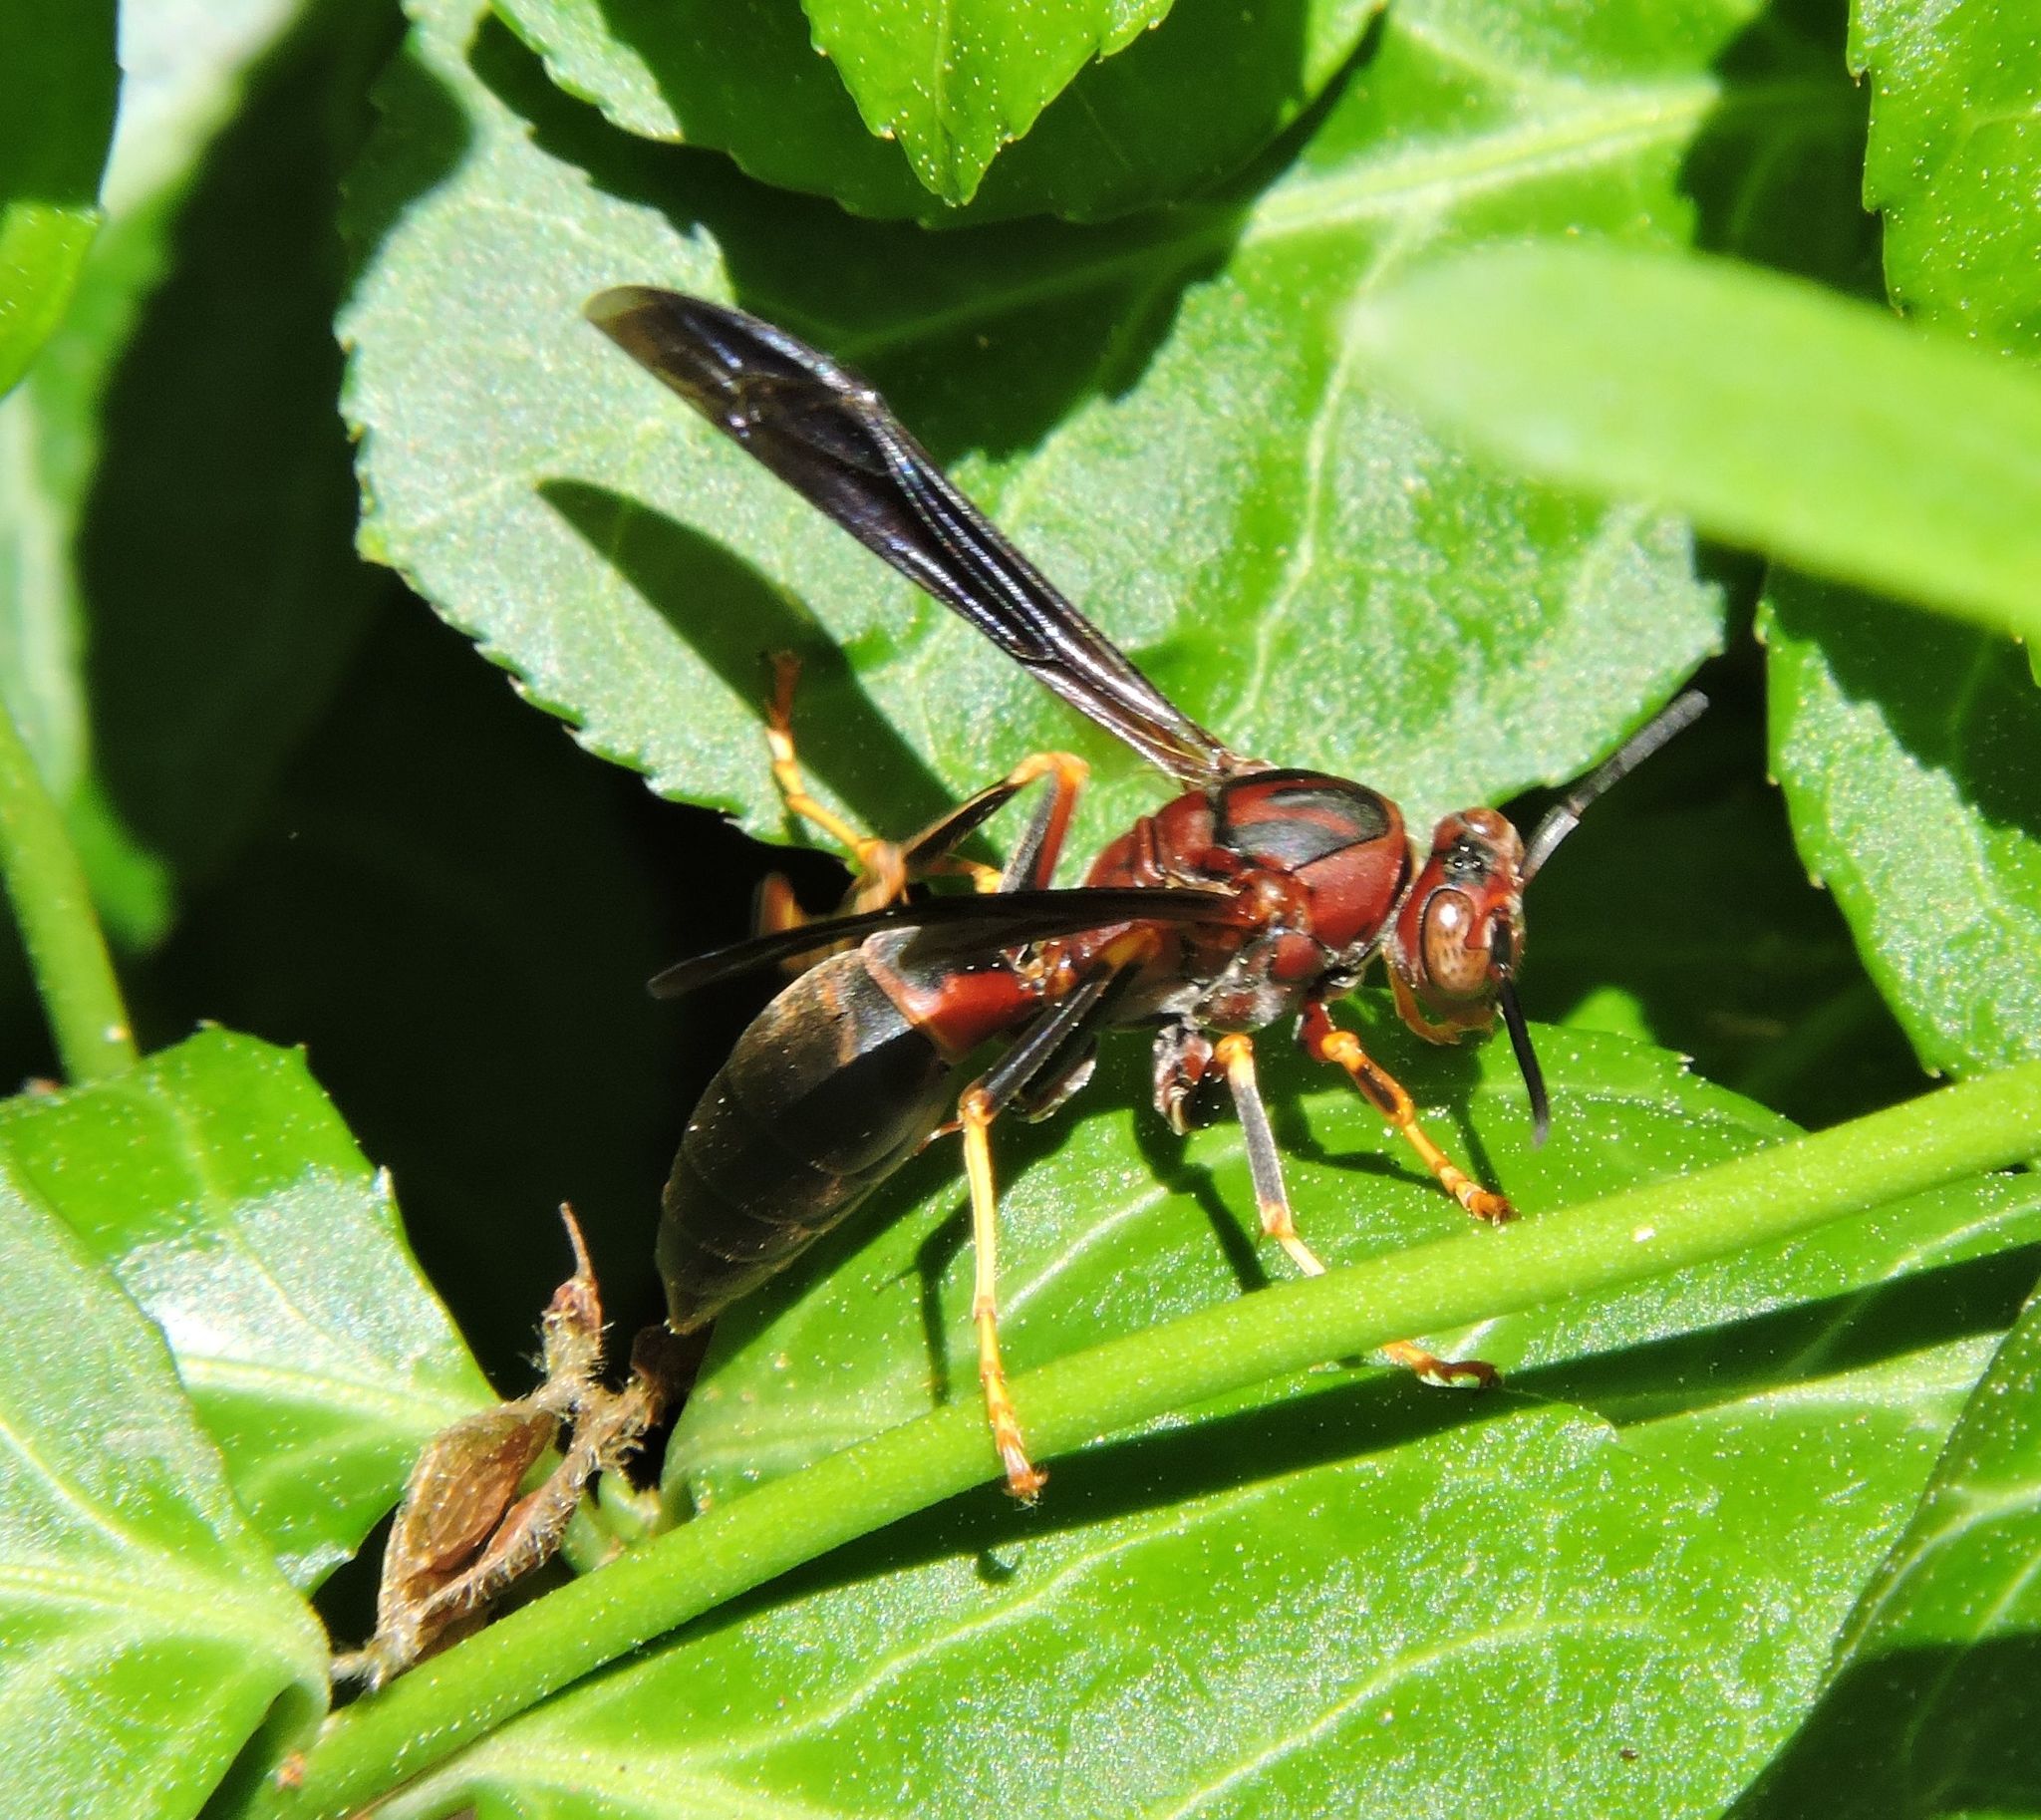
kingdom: Animalia
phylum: Arthropoda
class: Insecta
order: Hymenoptera
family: Eumenidae
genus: Polistes
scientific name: Polistes metricus
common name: Metric paper wasp
